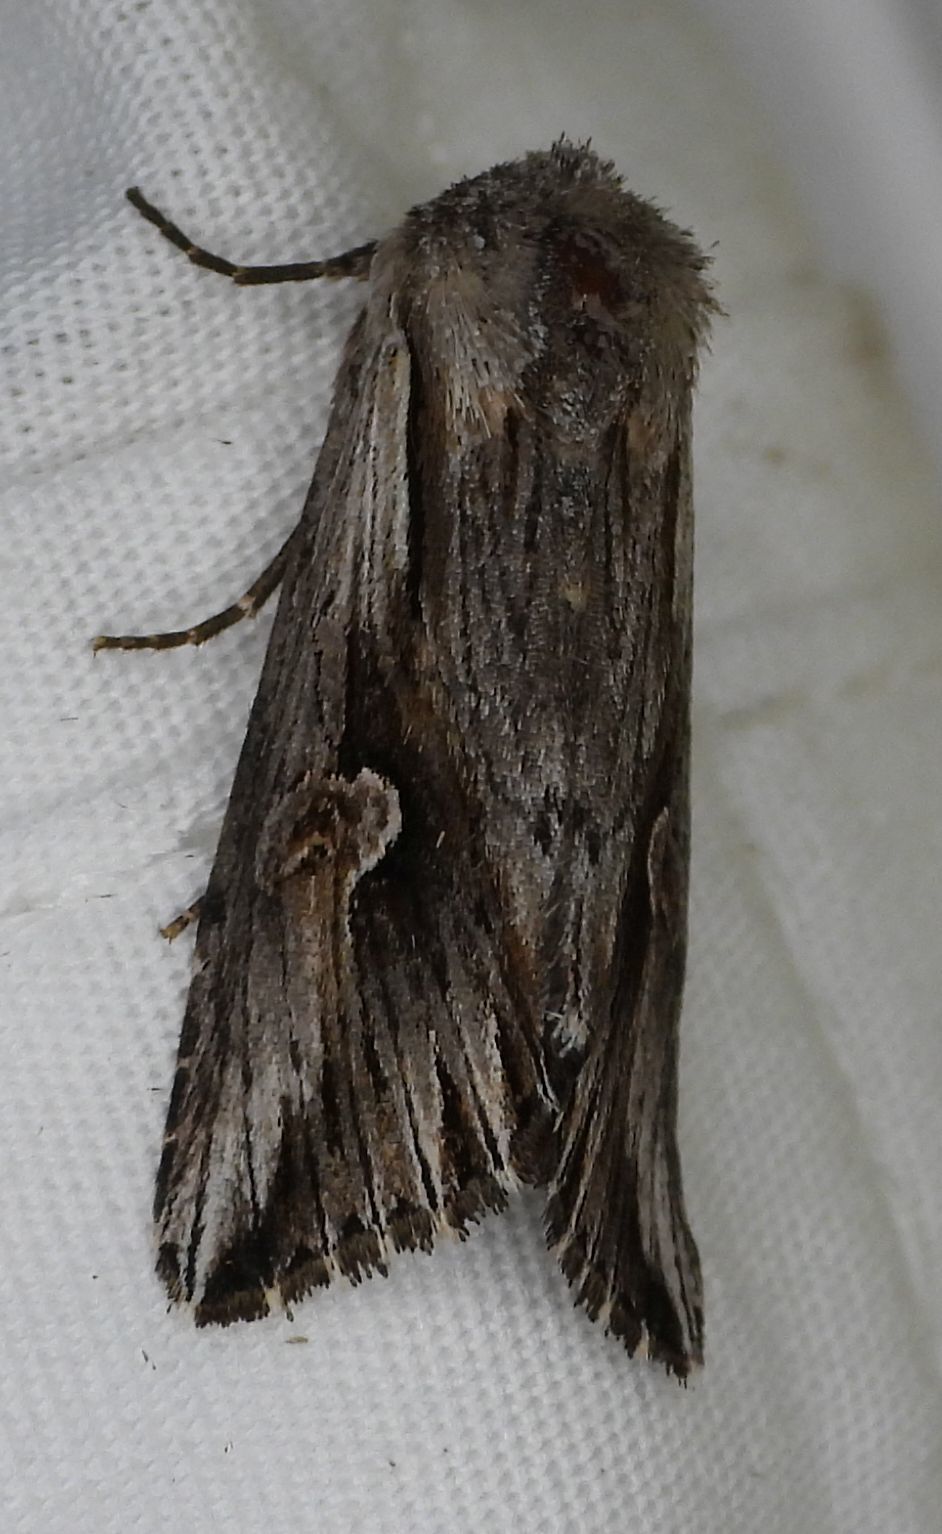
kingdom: Animalia
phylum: Arthropoda
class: Insecta
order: Lepidoptera
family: Noctuidae
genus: Nedra
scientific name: Nedra ramosula
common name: Gray half-spot
